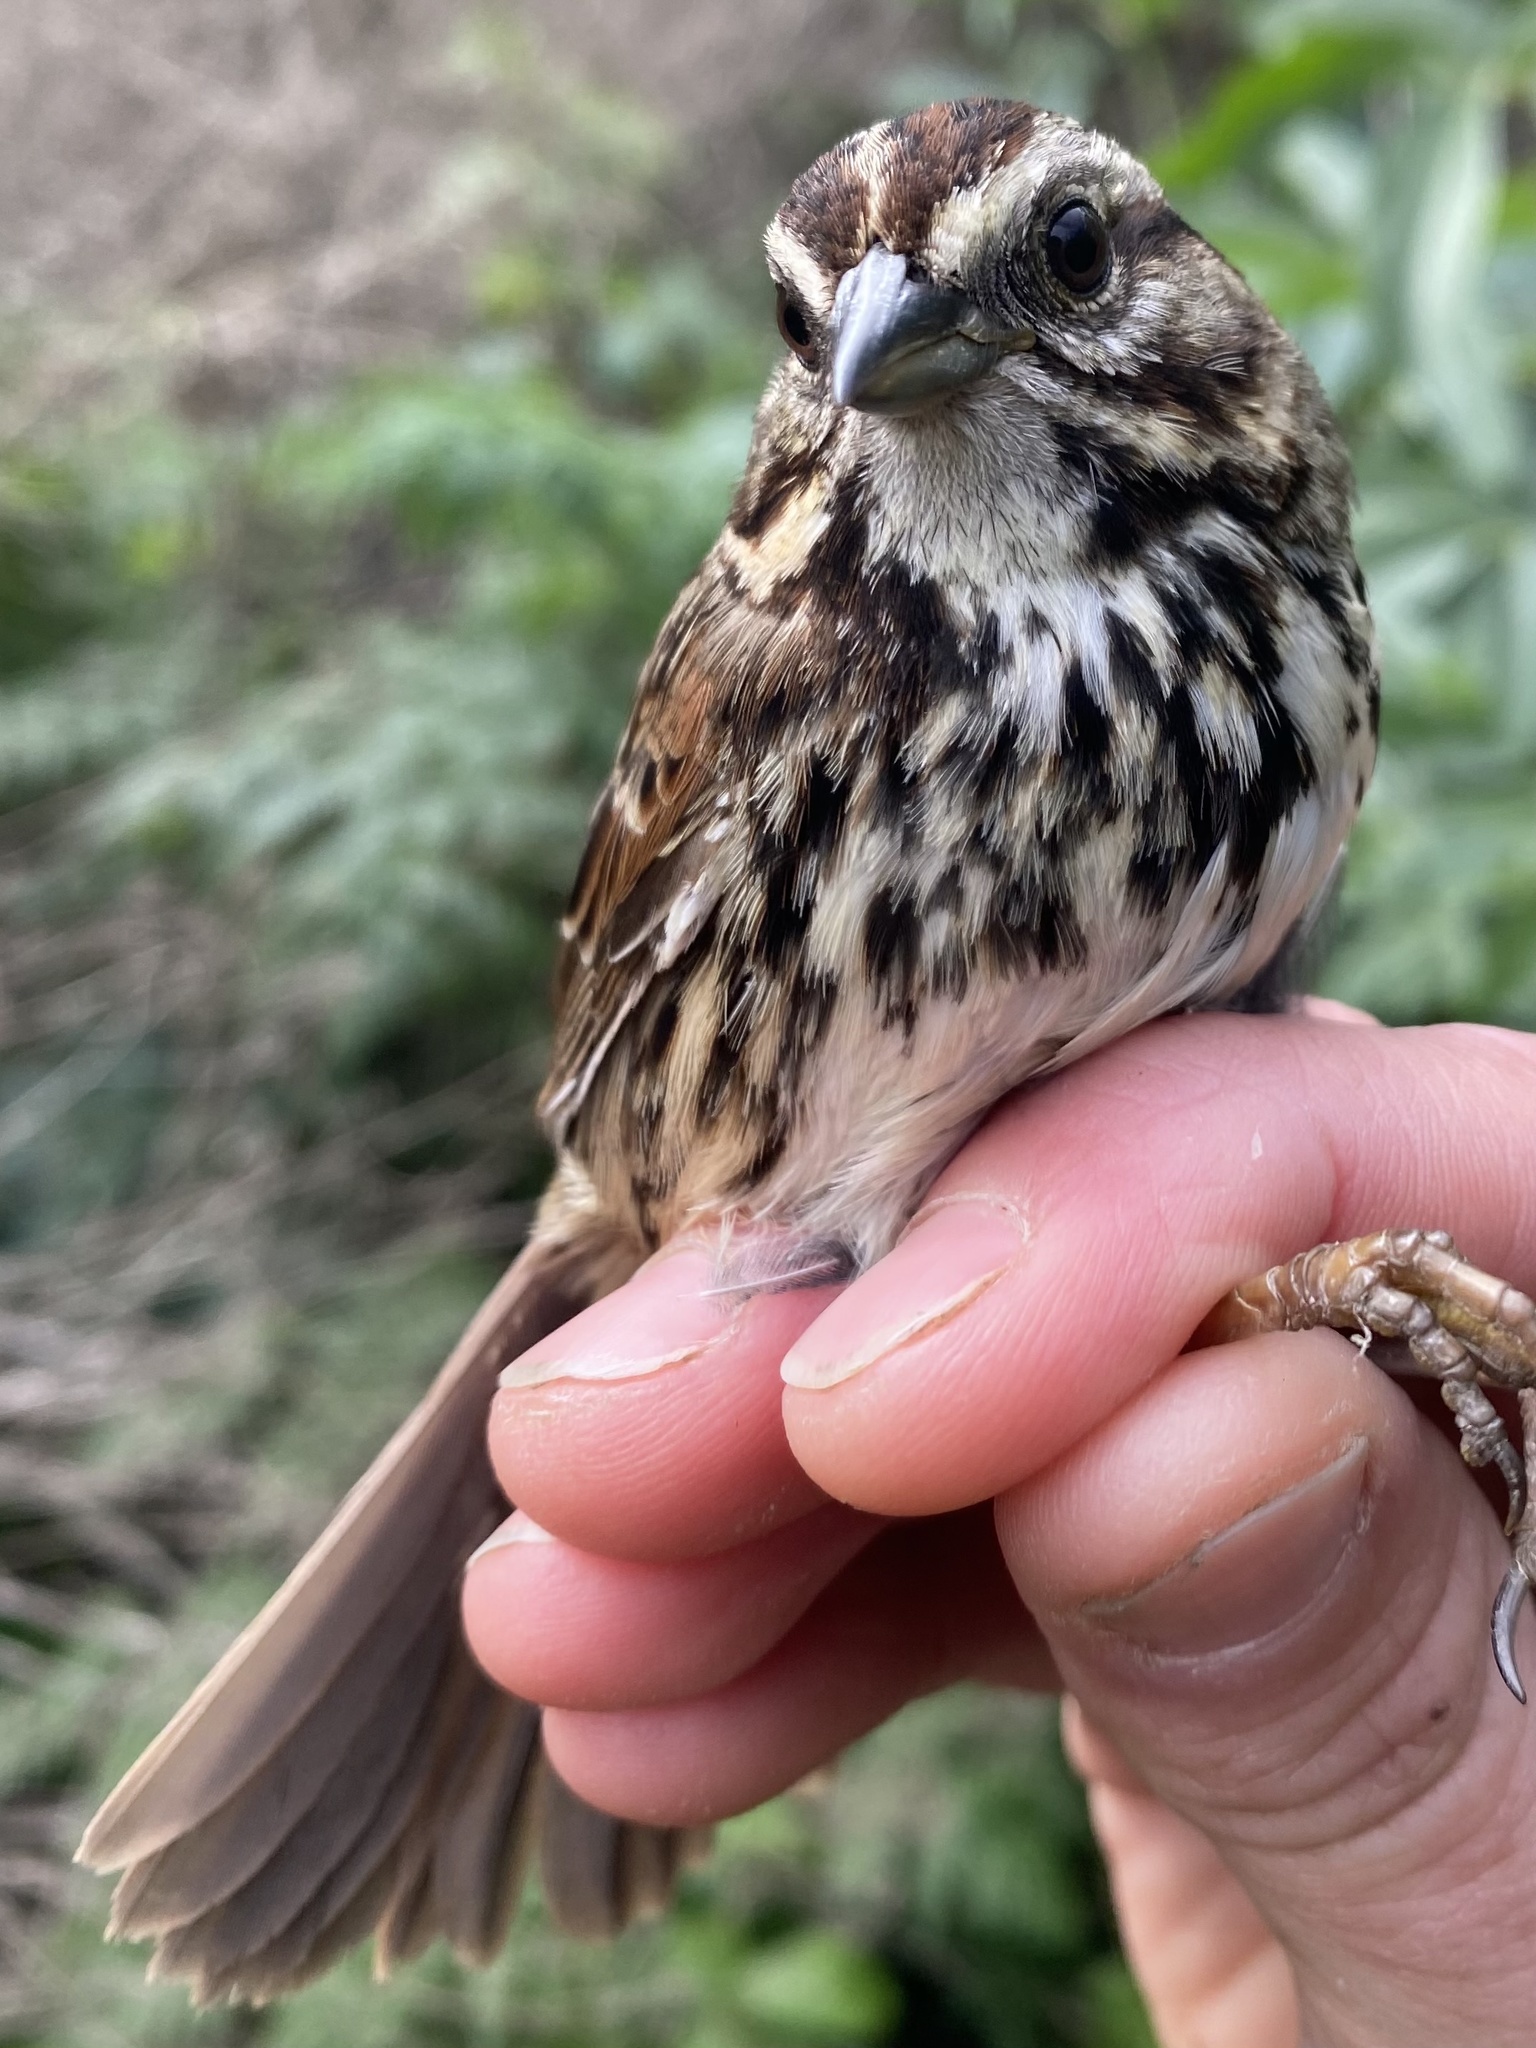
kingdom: Animalia
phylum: Chordata
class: Aves
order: Passeriformes
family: Passerellidae
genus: Melospiza
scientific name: Melospiza melodia
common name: Song sparrow
